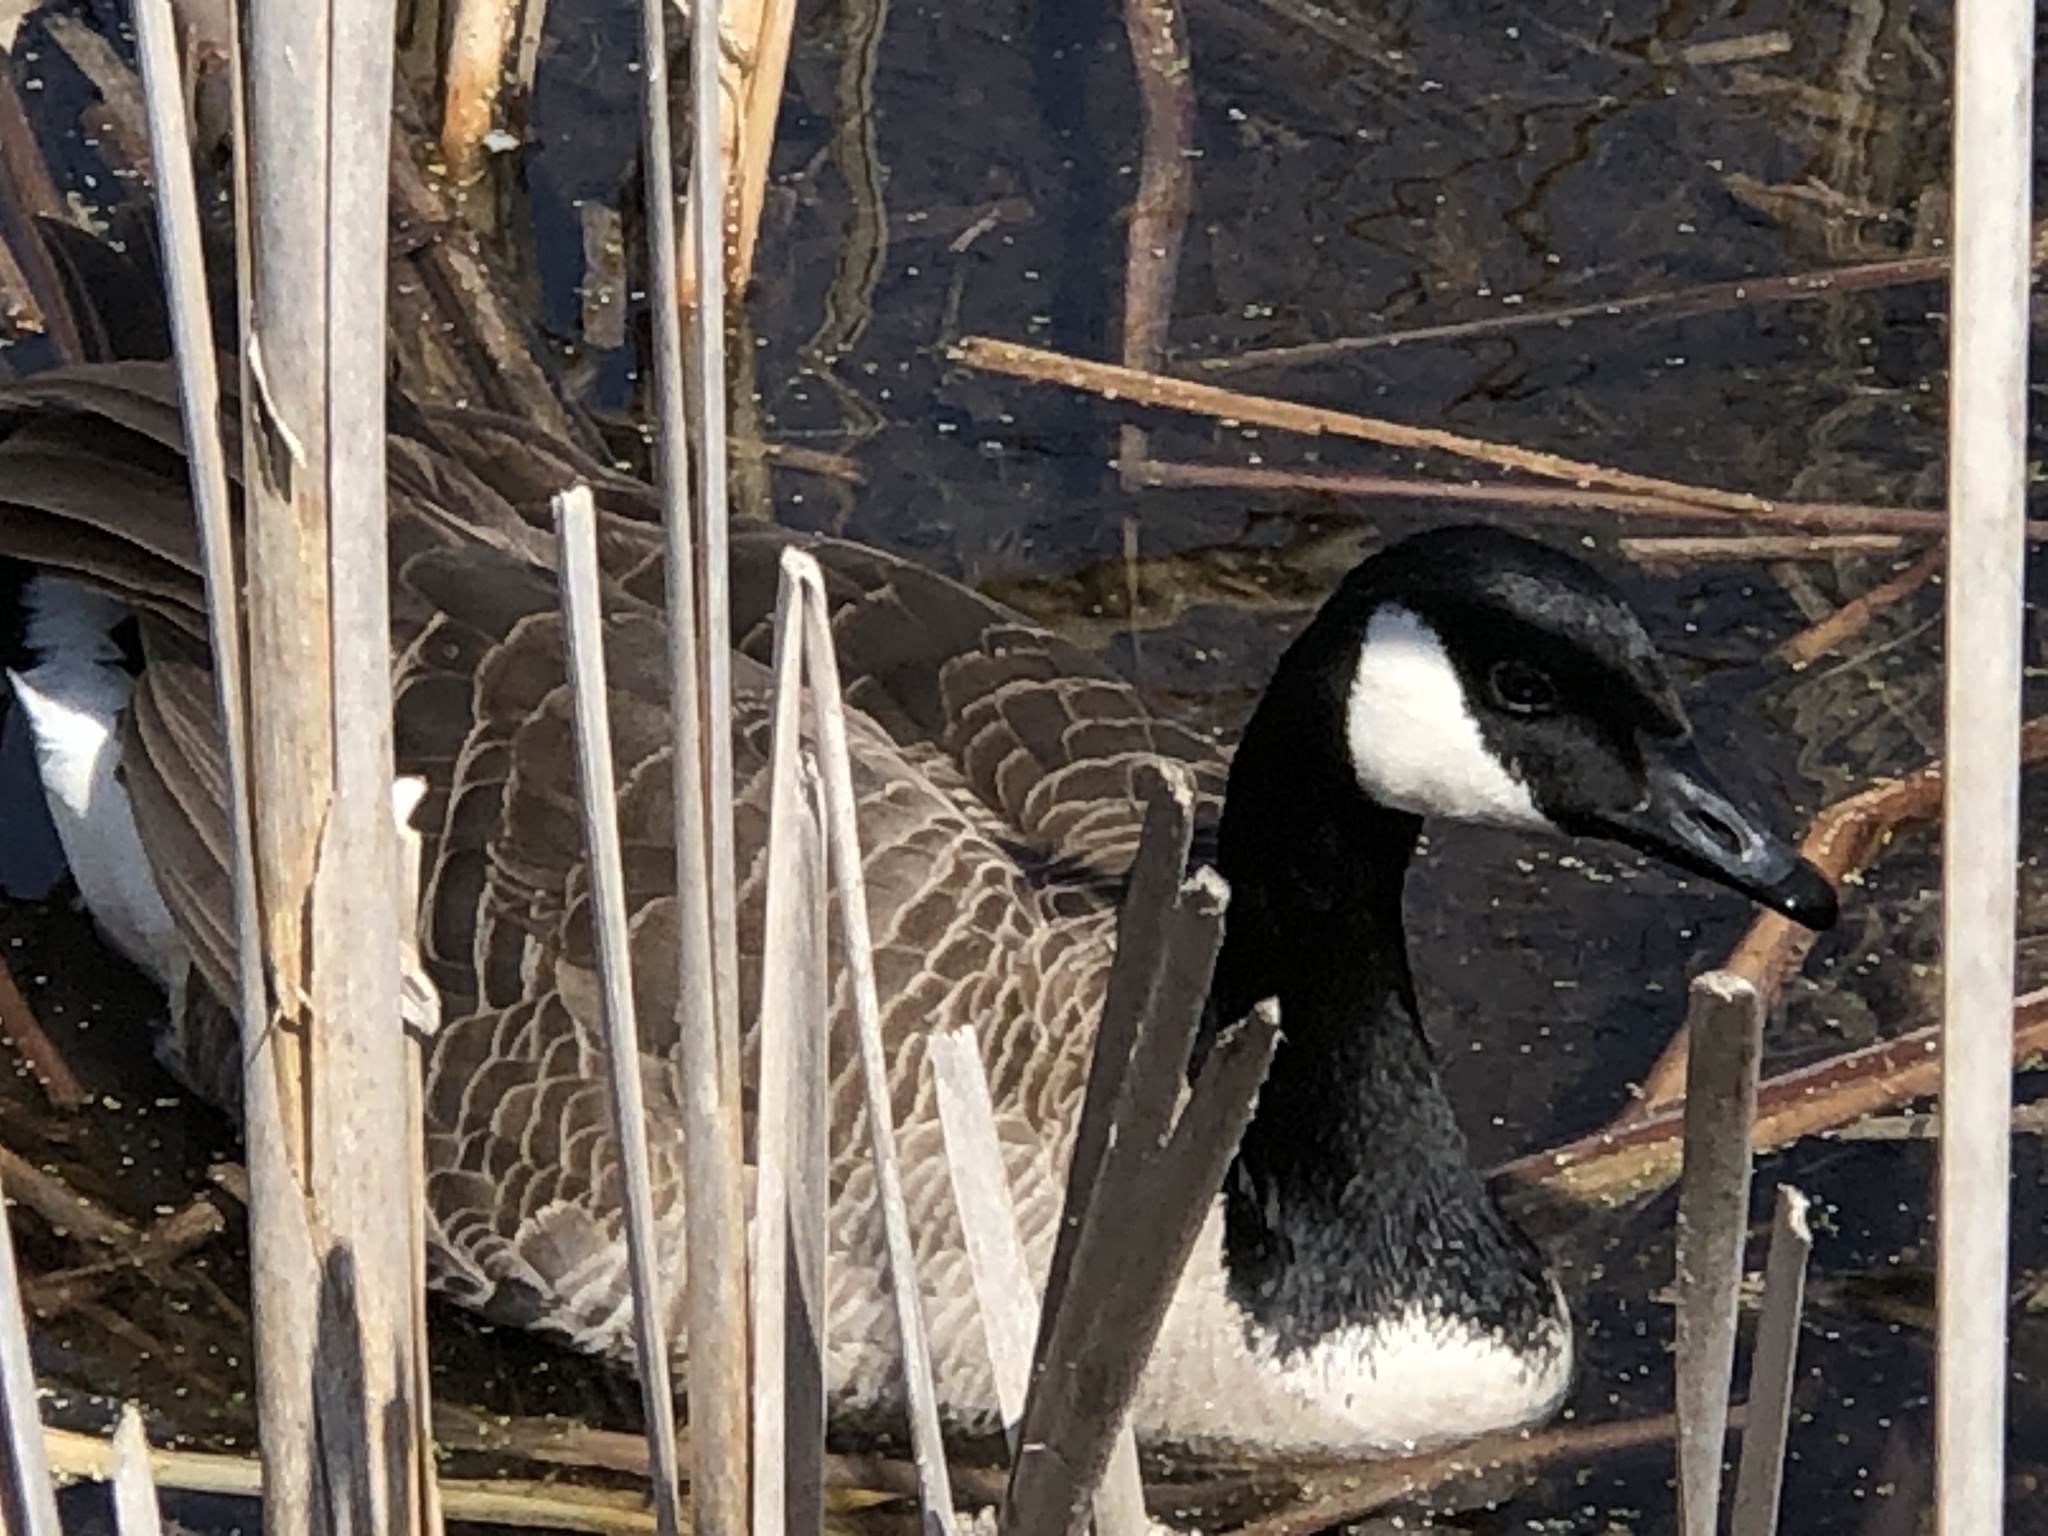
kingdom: Animalia
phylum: Chordata
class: Aves
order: Anseriformes
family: Anatidae
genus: Branta
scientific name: Branta canadensis
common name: Canada goose
